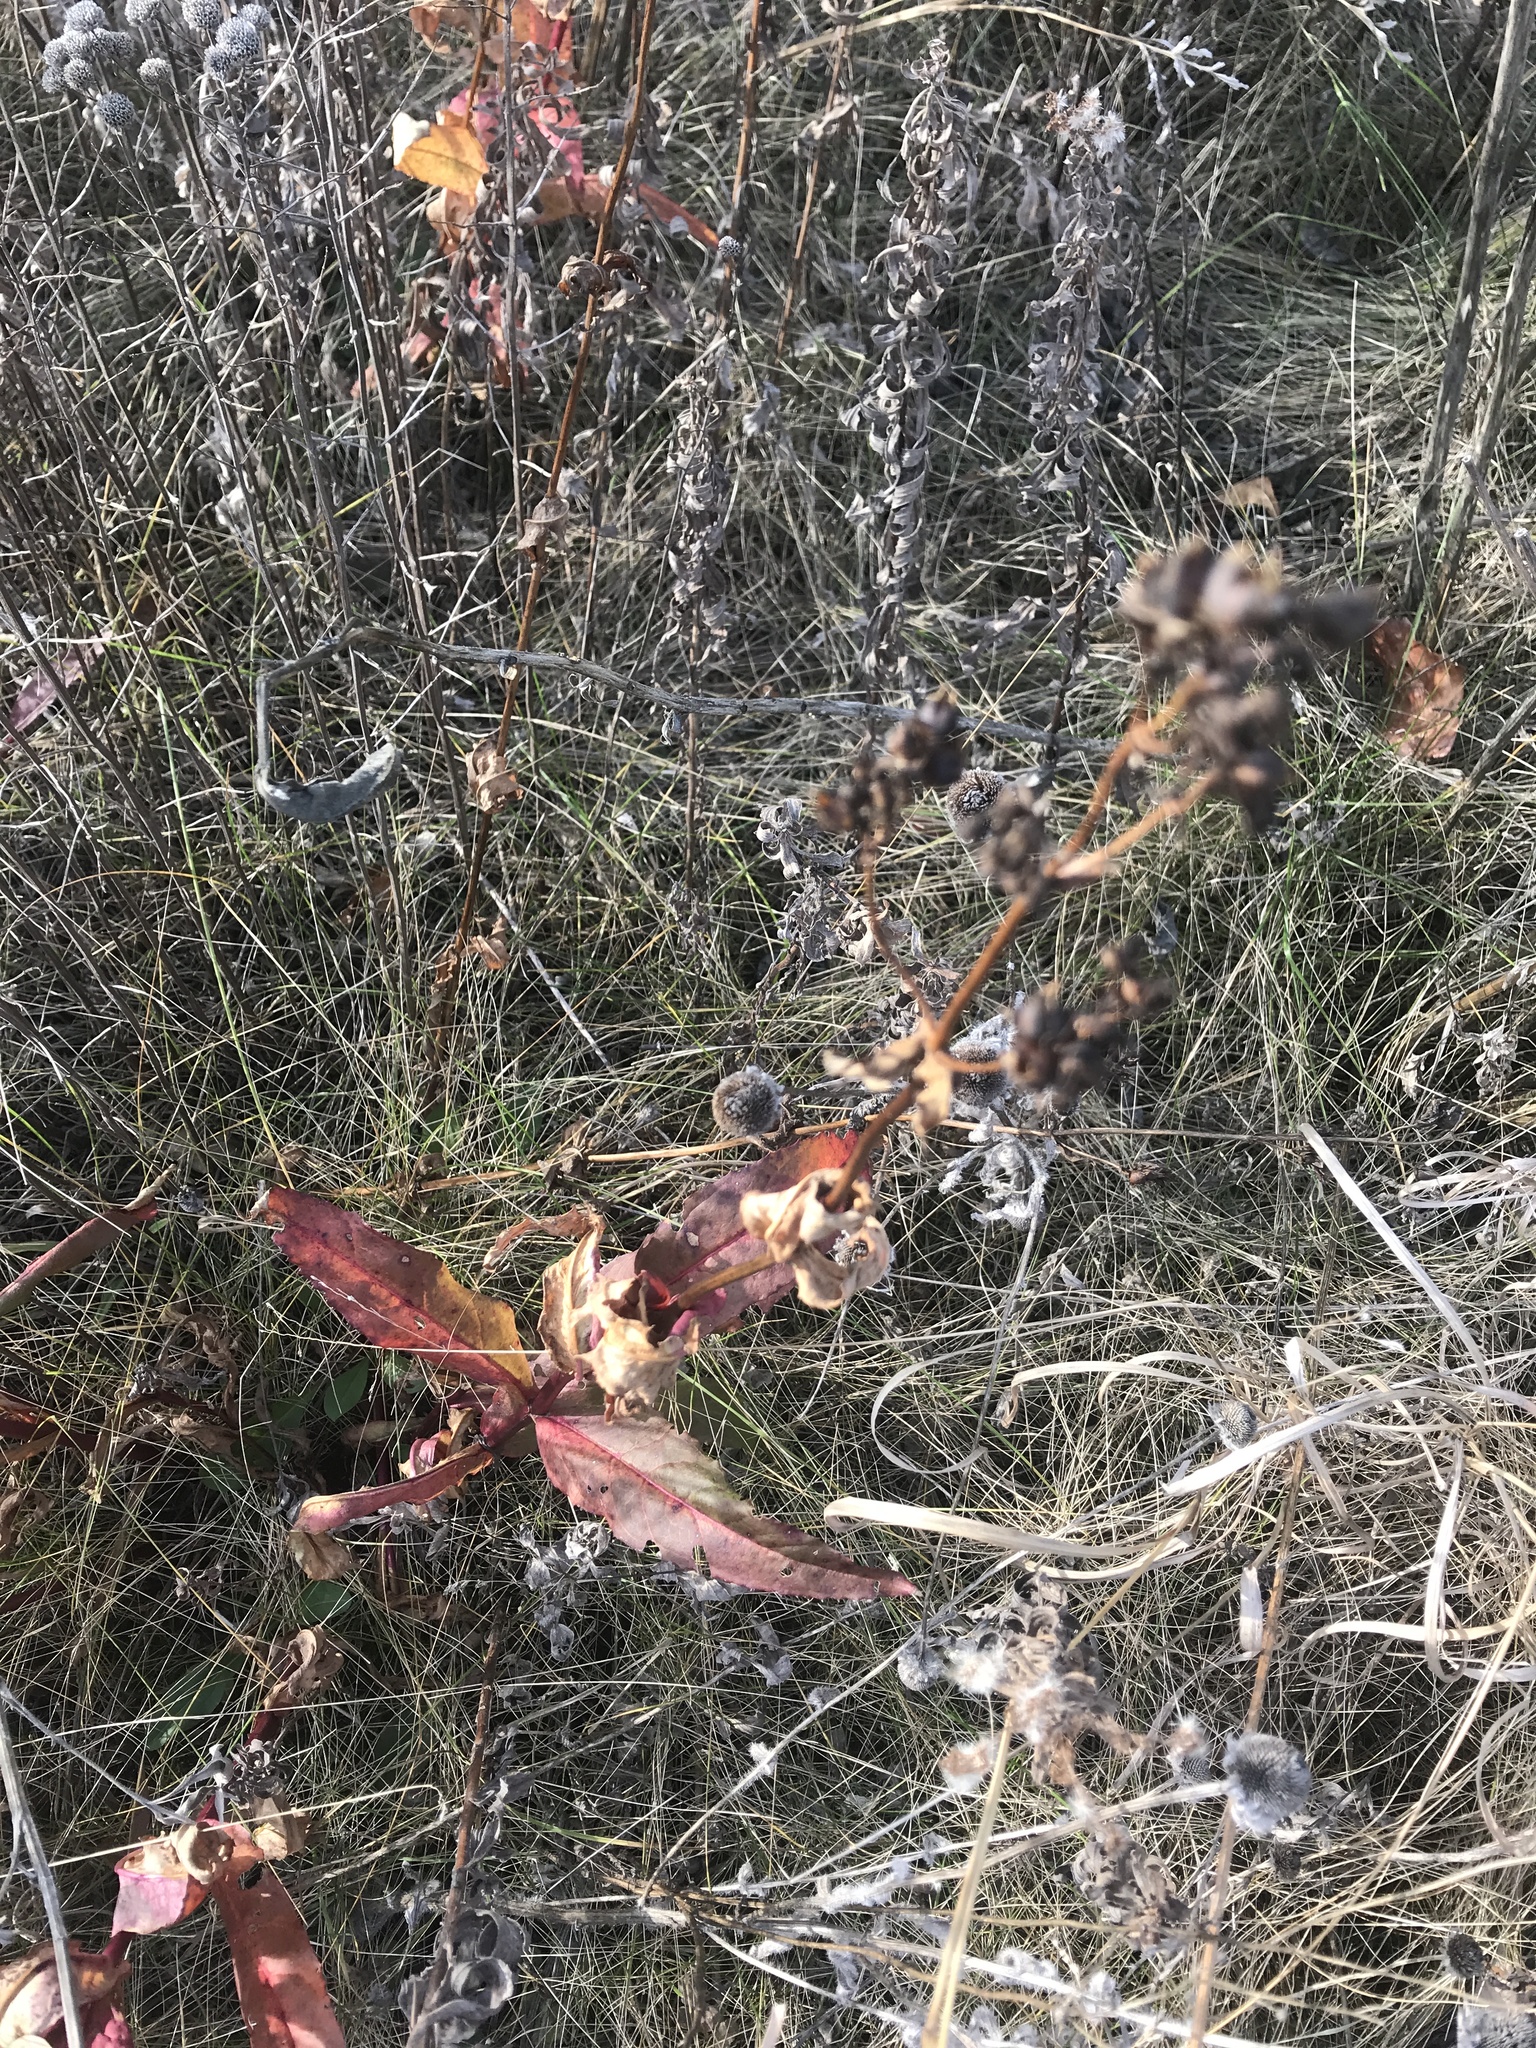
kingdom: Plantae
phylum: Tracheophyta
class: Magnoliopsida
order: Lamiales
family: Plantaginaceae
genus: Penstemon
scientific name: Penstemon digitalis
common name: Foxglove beardtongue
